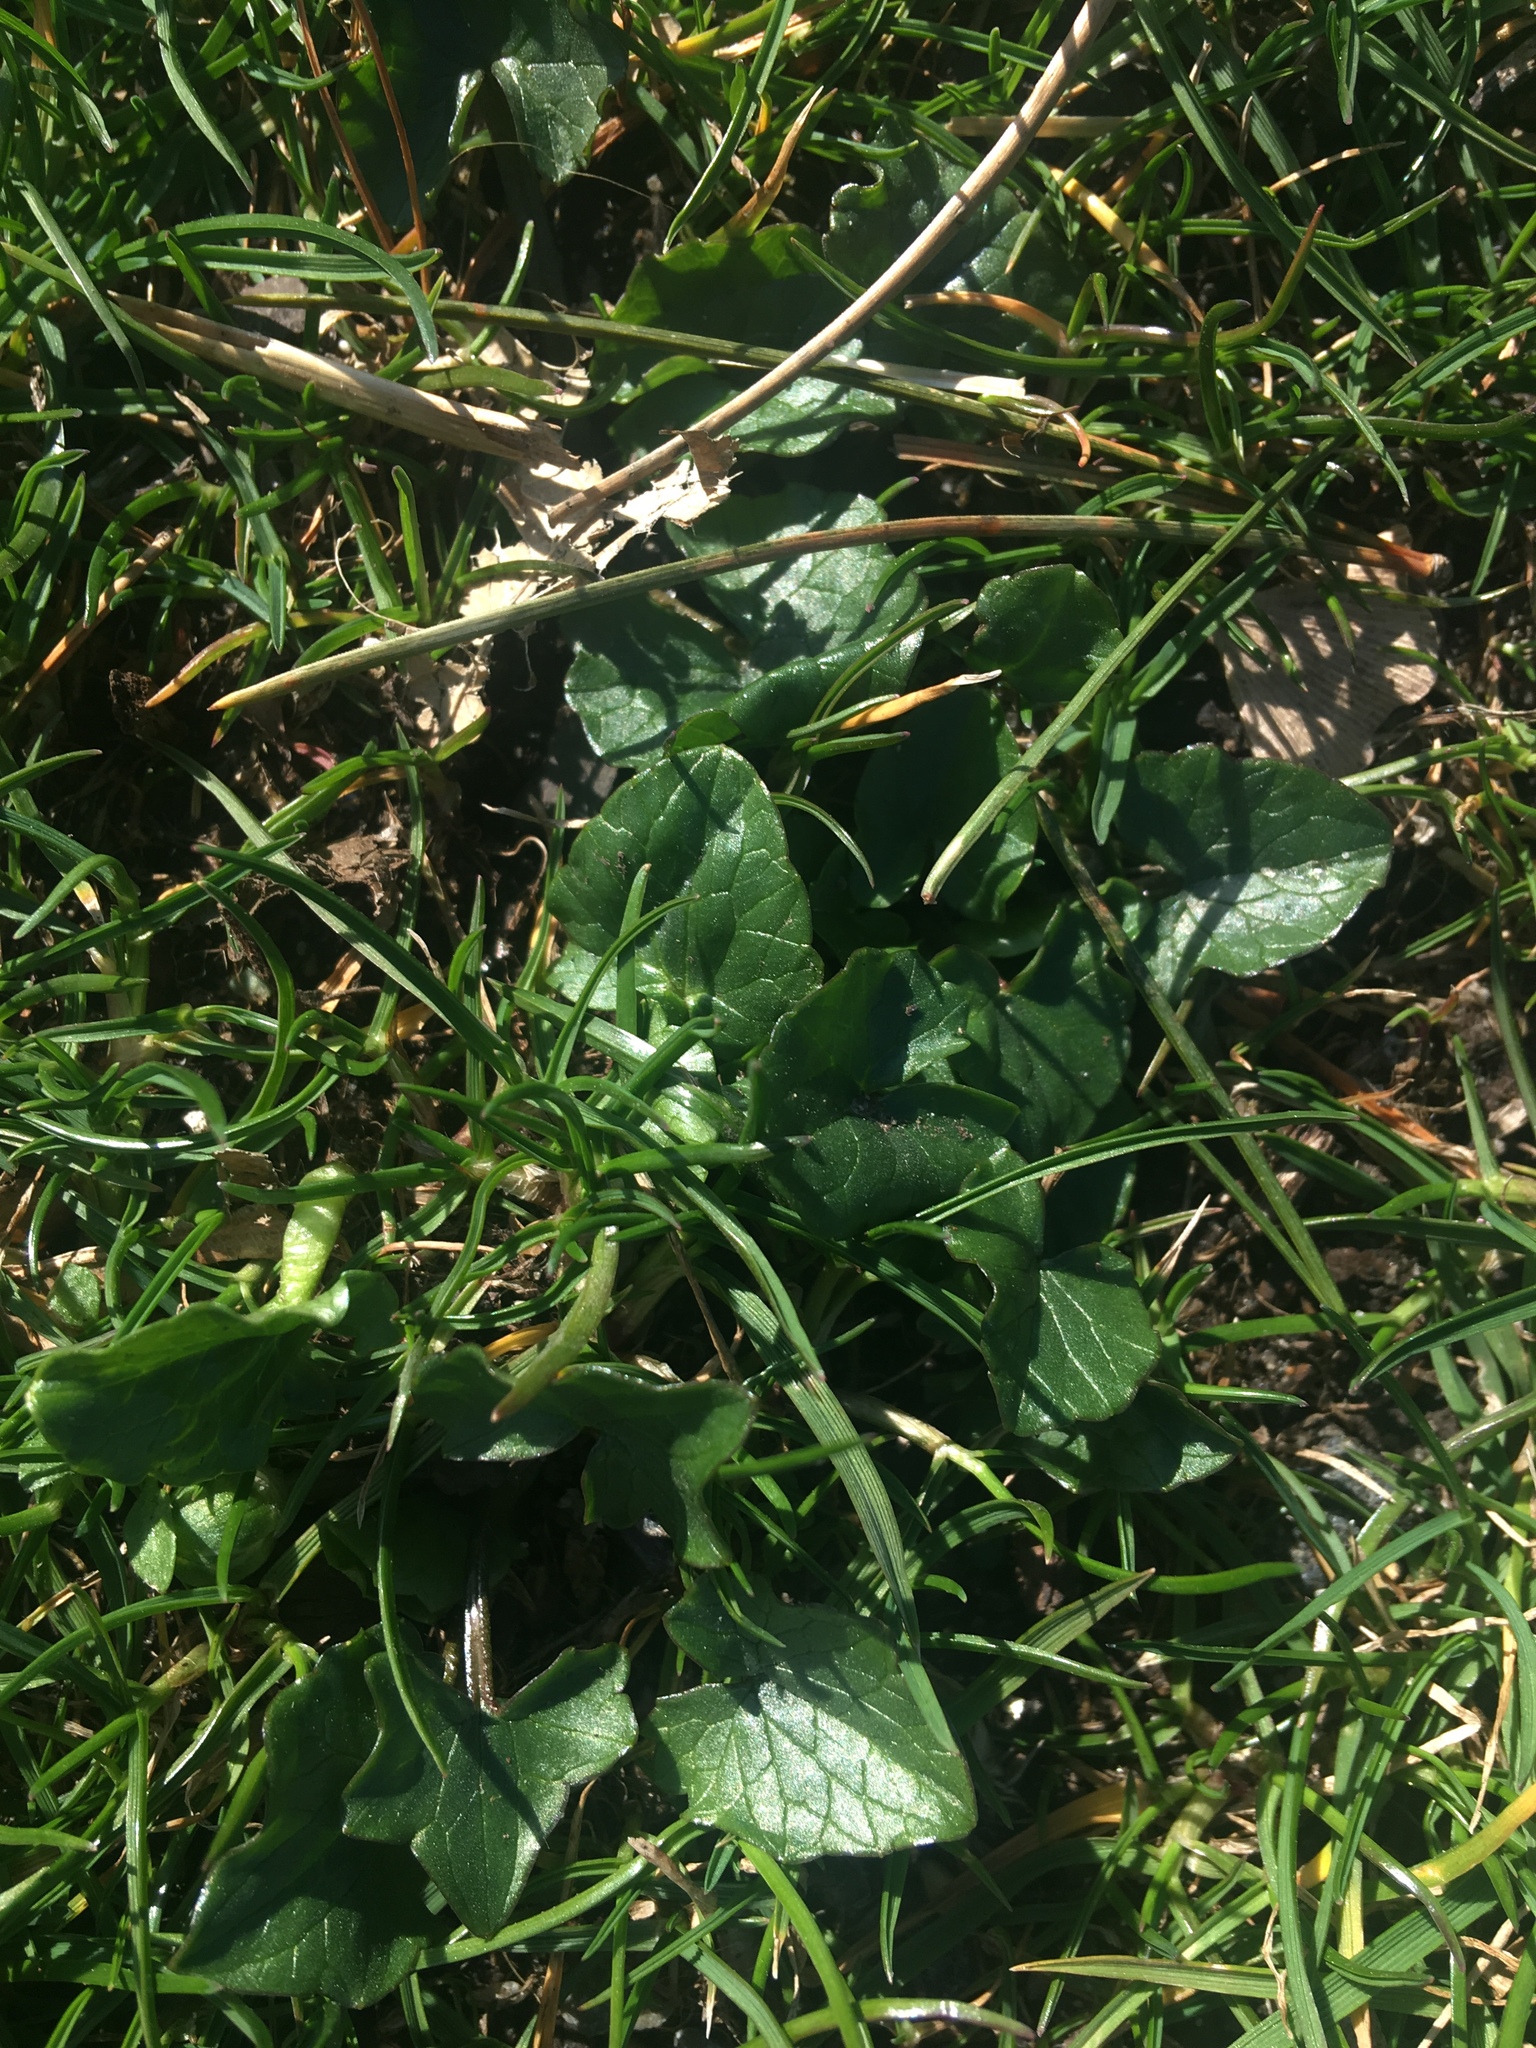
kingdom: Plantae
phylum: Tracheophyta
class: Magnoliopsida
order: Ranunculales
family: Ranunculaceae
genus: Ficaria
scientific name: Ficaria verna
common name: Lesser celandine
